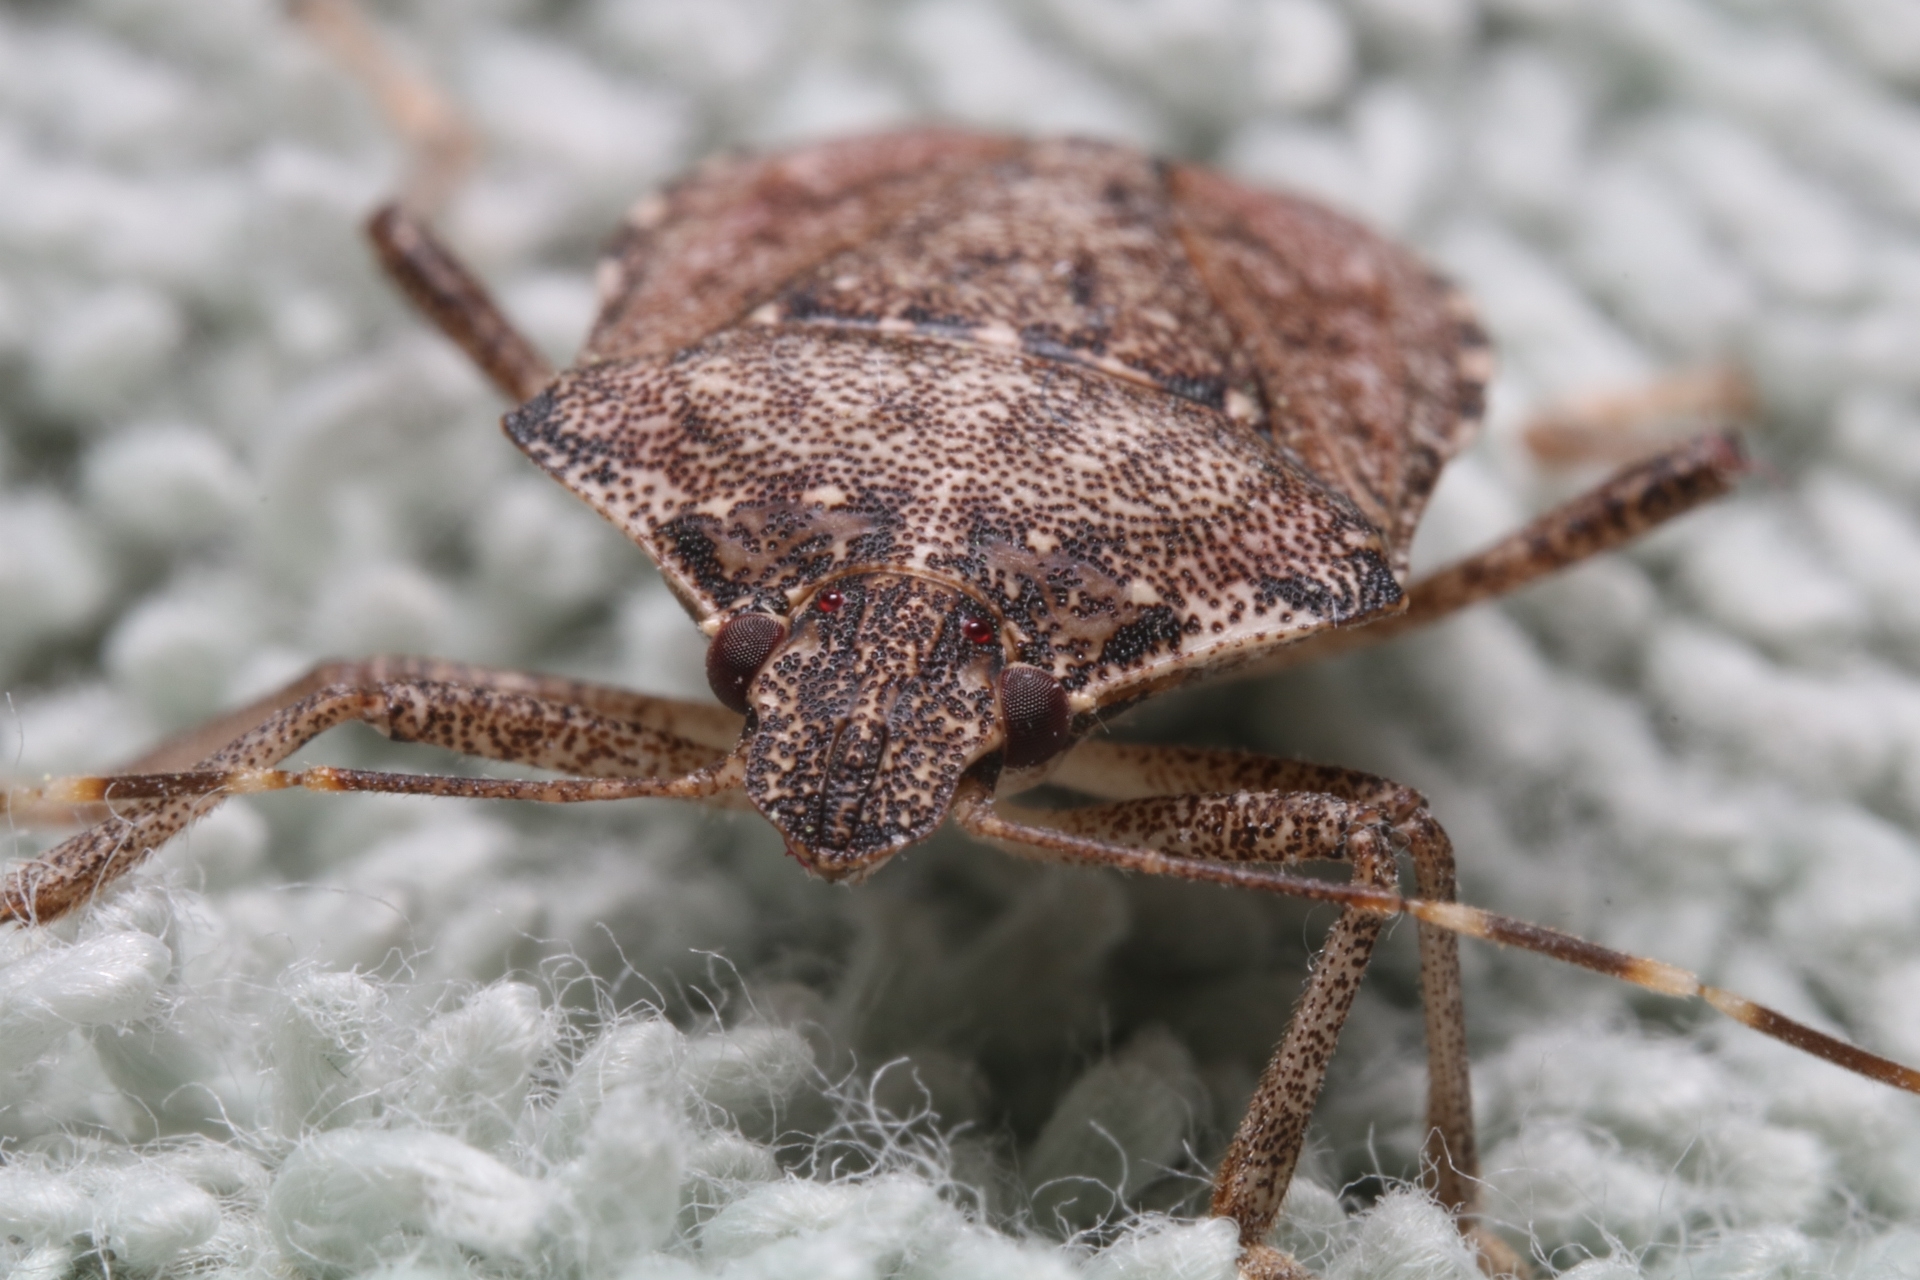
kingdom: Animalia
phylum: Arthropoda
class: Insecta
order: Hemiptera
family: Pentatomidae
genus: Halyomorpha
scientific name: Halyomorpha halys
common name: Brown marmorated stink bug
